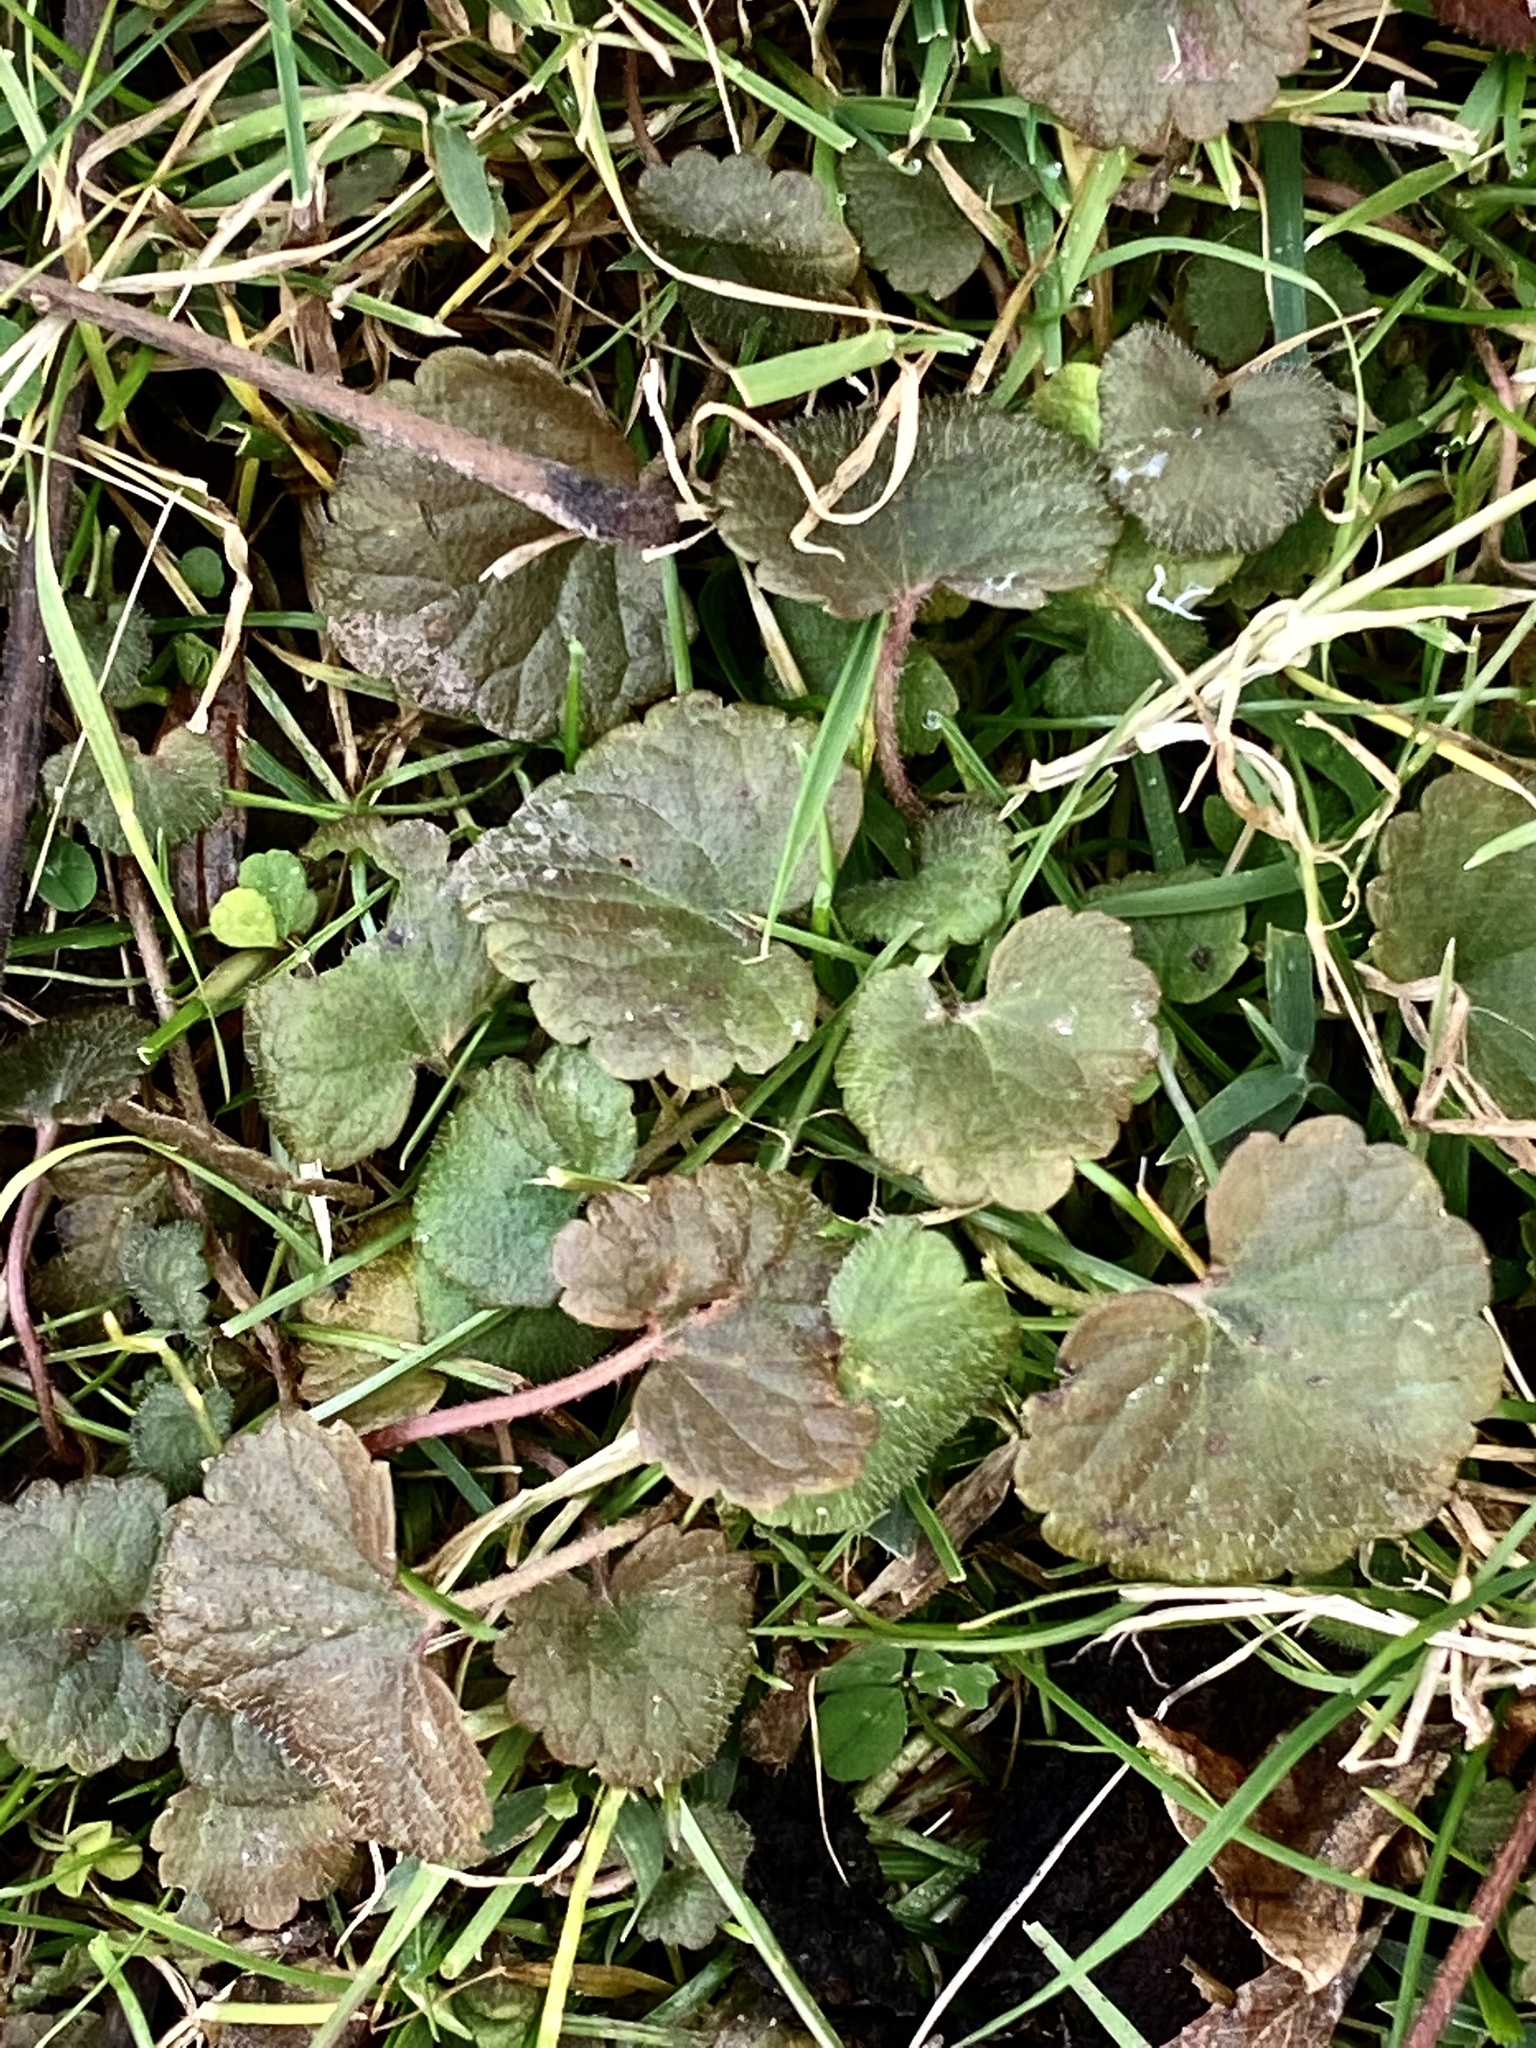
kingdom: Plantae
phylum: Tracheophyta
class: Magnoliopsida
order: Lamiales
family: Lamiaceae
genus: Glechoma
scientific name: Glechoma hederacea
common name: Ground ivy
